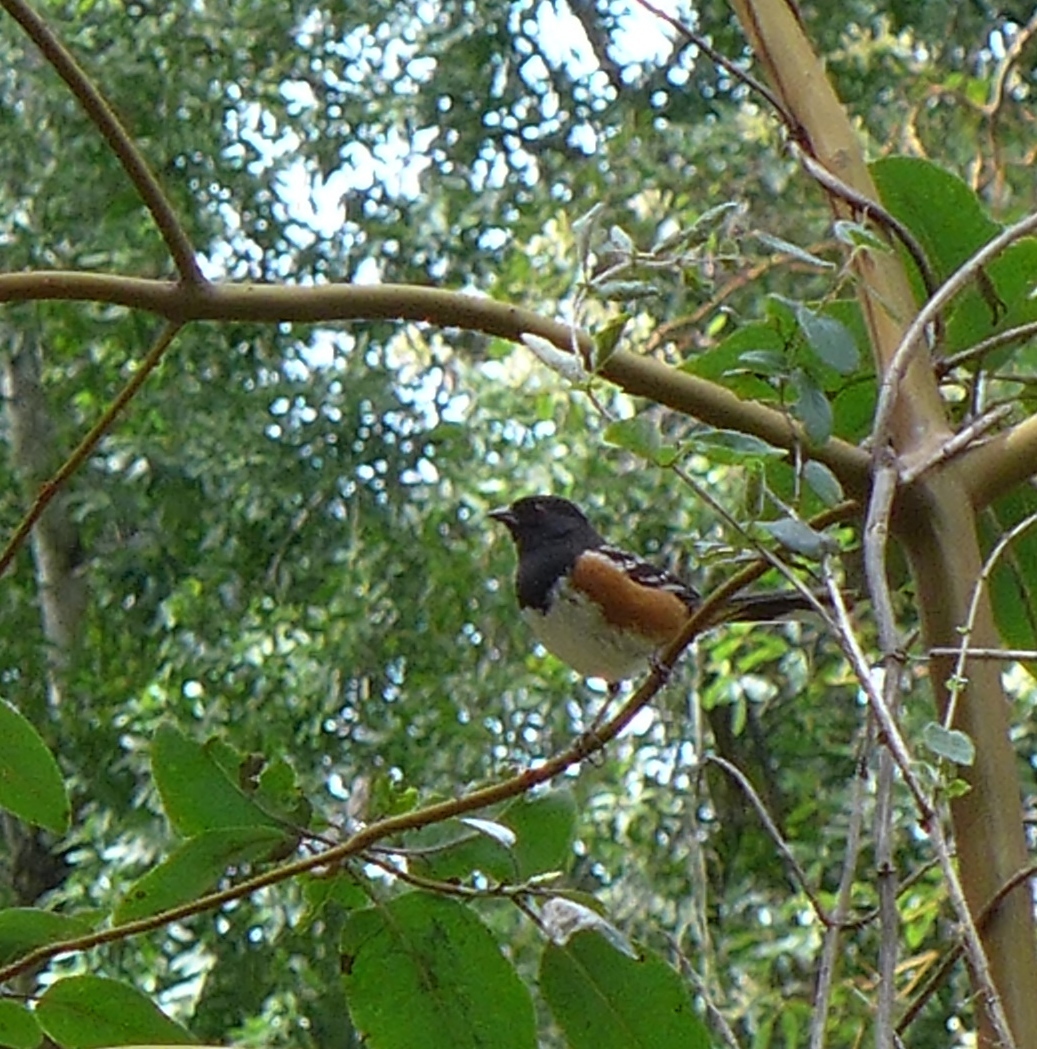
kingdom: Animalia
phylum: Chordata
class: Aves
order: Passeriformes
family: Passerellidae
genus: Pipilo
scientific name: Pipilo maculatus
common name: Spotted towhee
